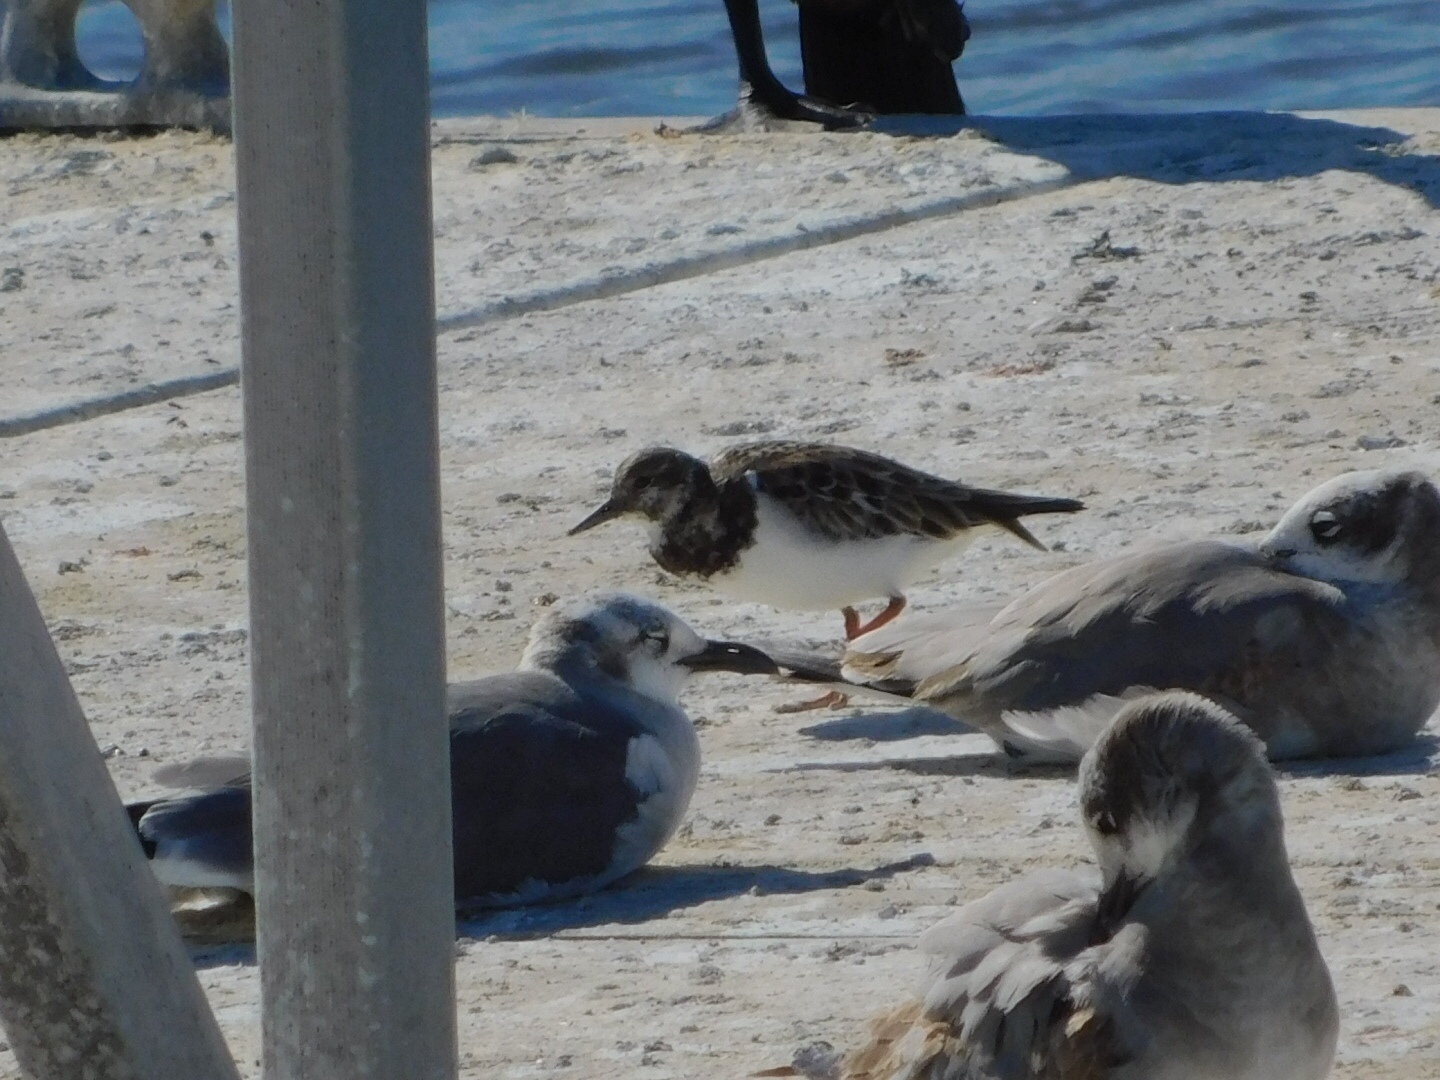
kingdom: Animalia
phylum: Chordata
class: Aves
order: Charadriiformes
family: Scolopacidae
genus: Arenaria
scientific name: Arenaria interpres
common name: Ruddy turnstone
